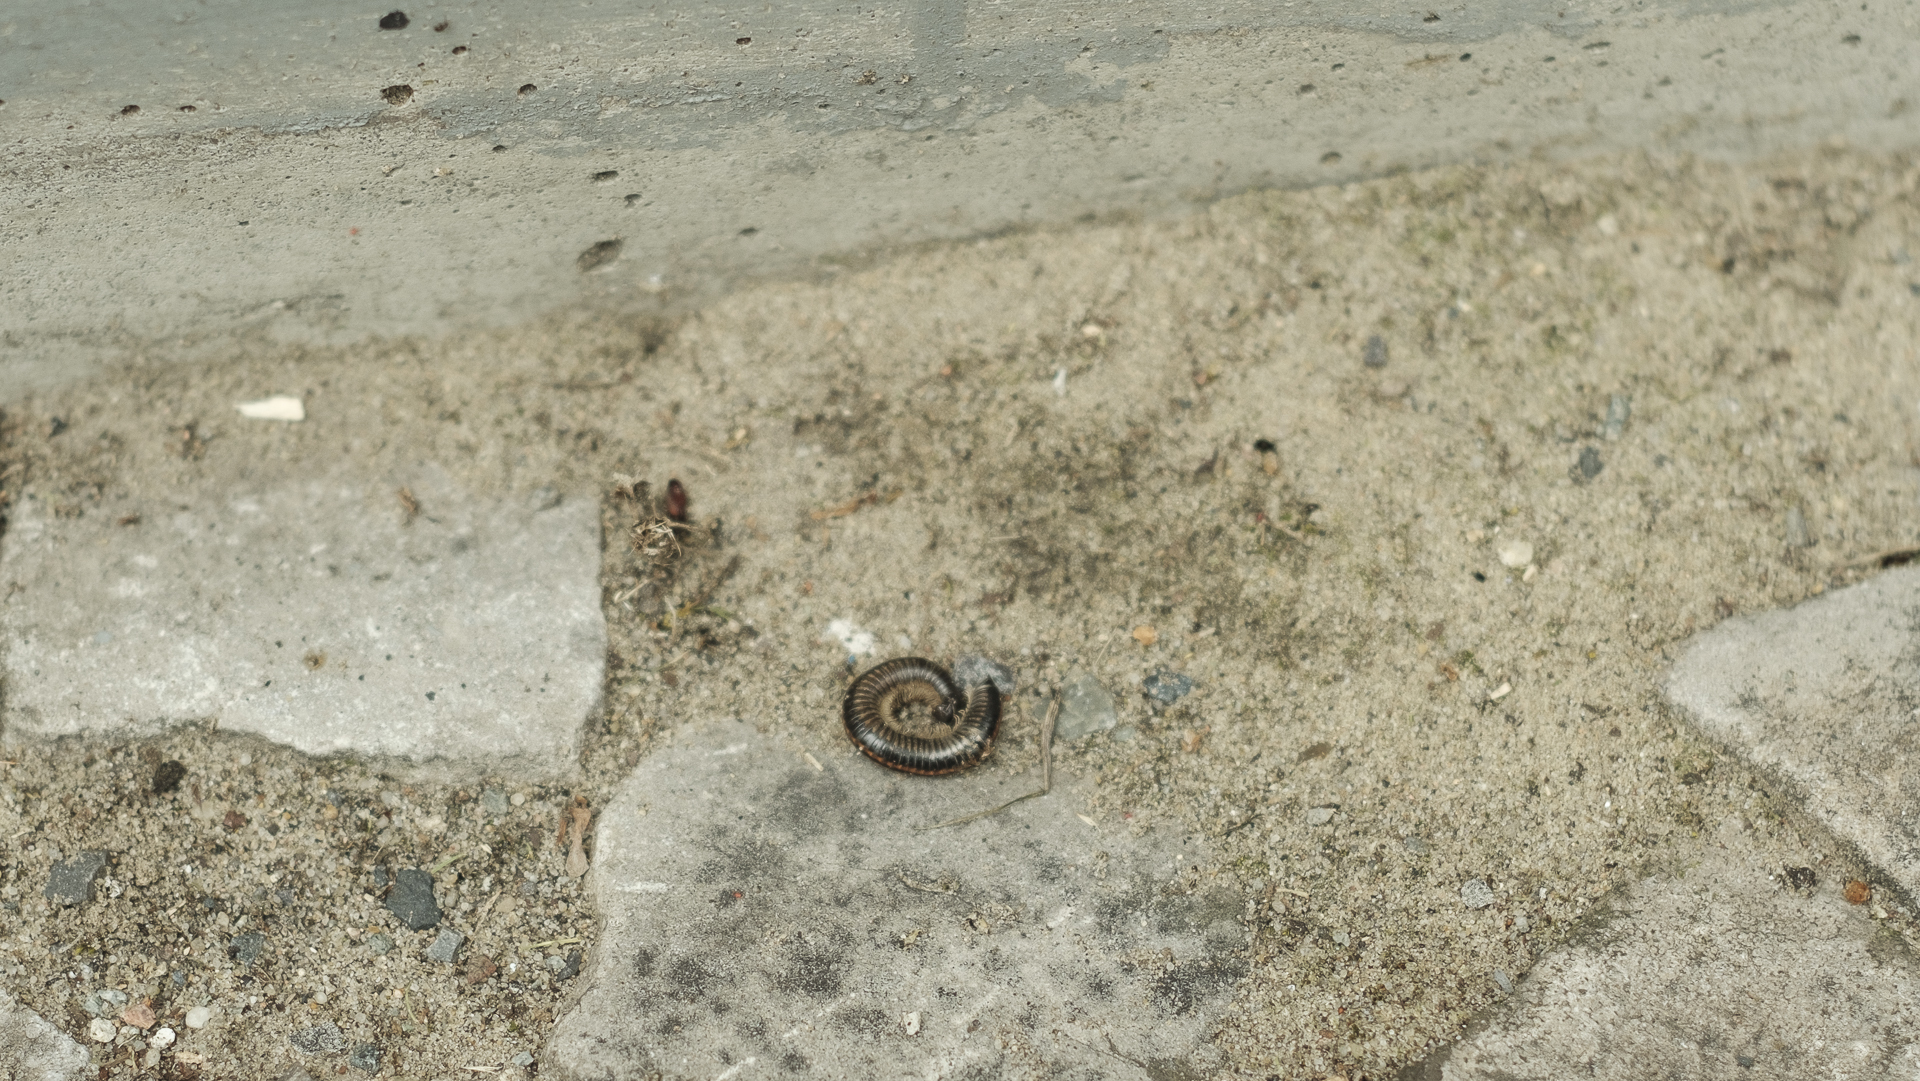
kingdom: Animalia
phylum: Arthropoda
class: Diplopoda
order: Julida
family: Julidae
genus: Ommatoiulus
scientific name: Ommatoiulus sabulosus
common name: Striped millipede
